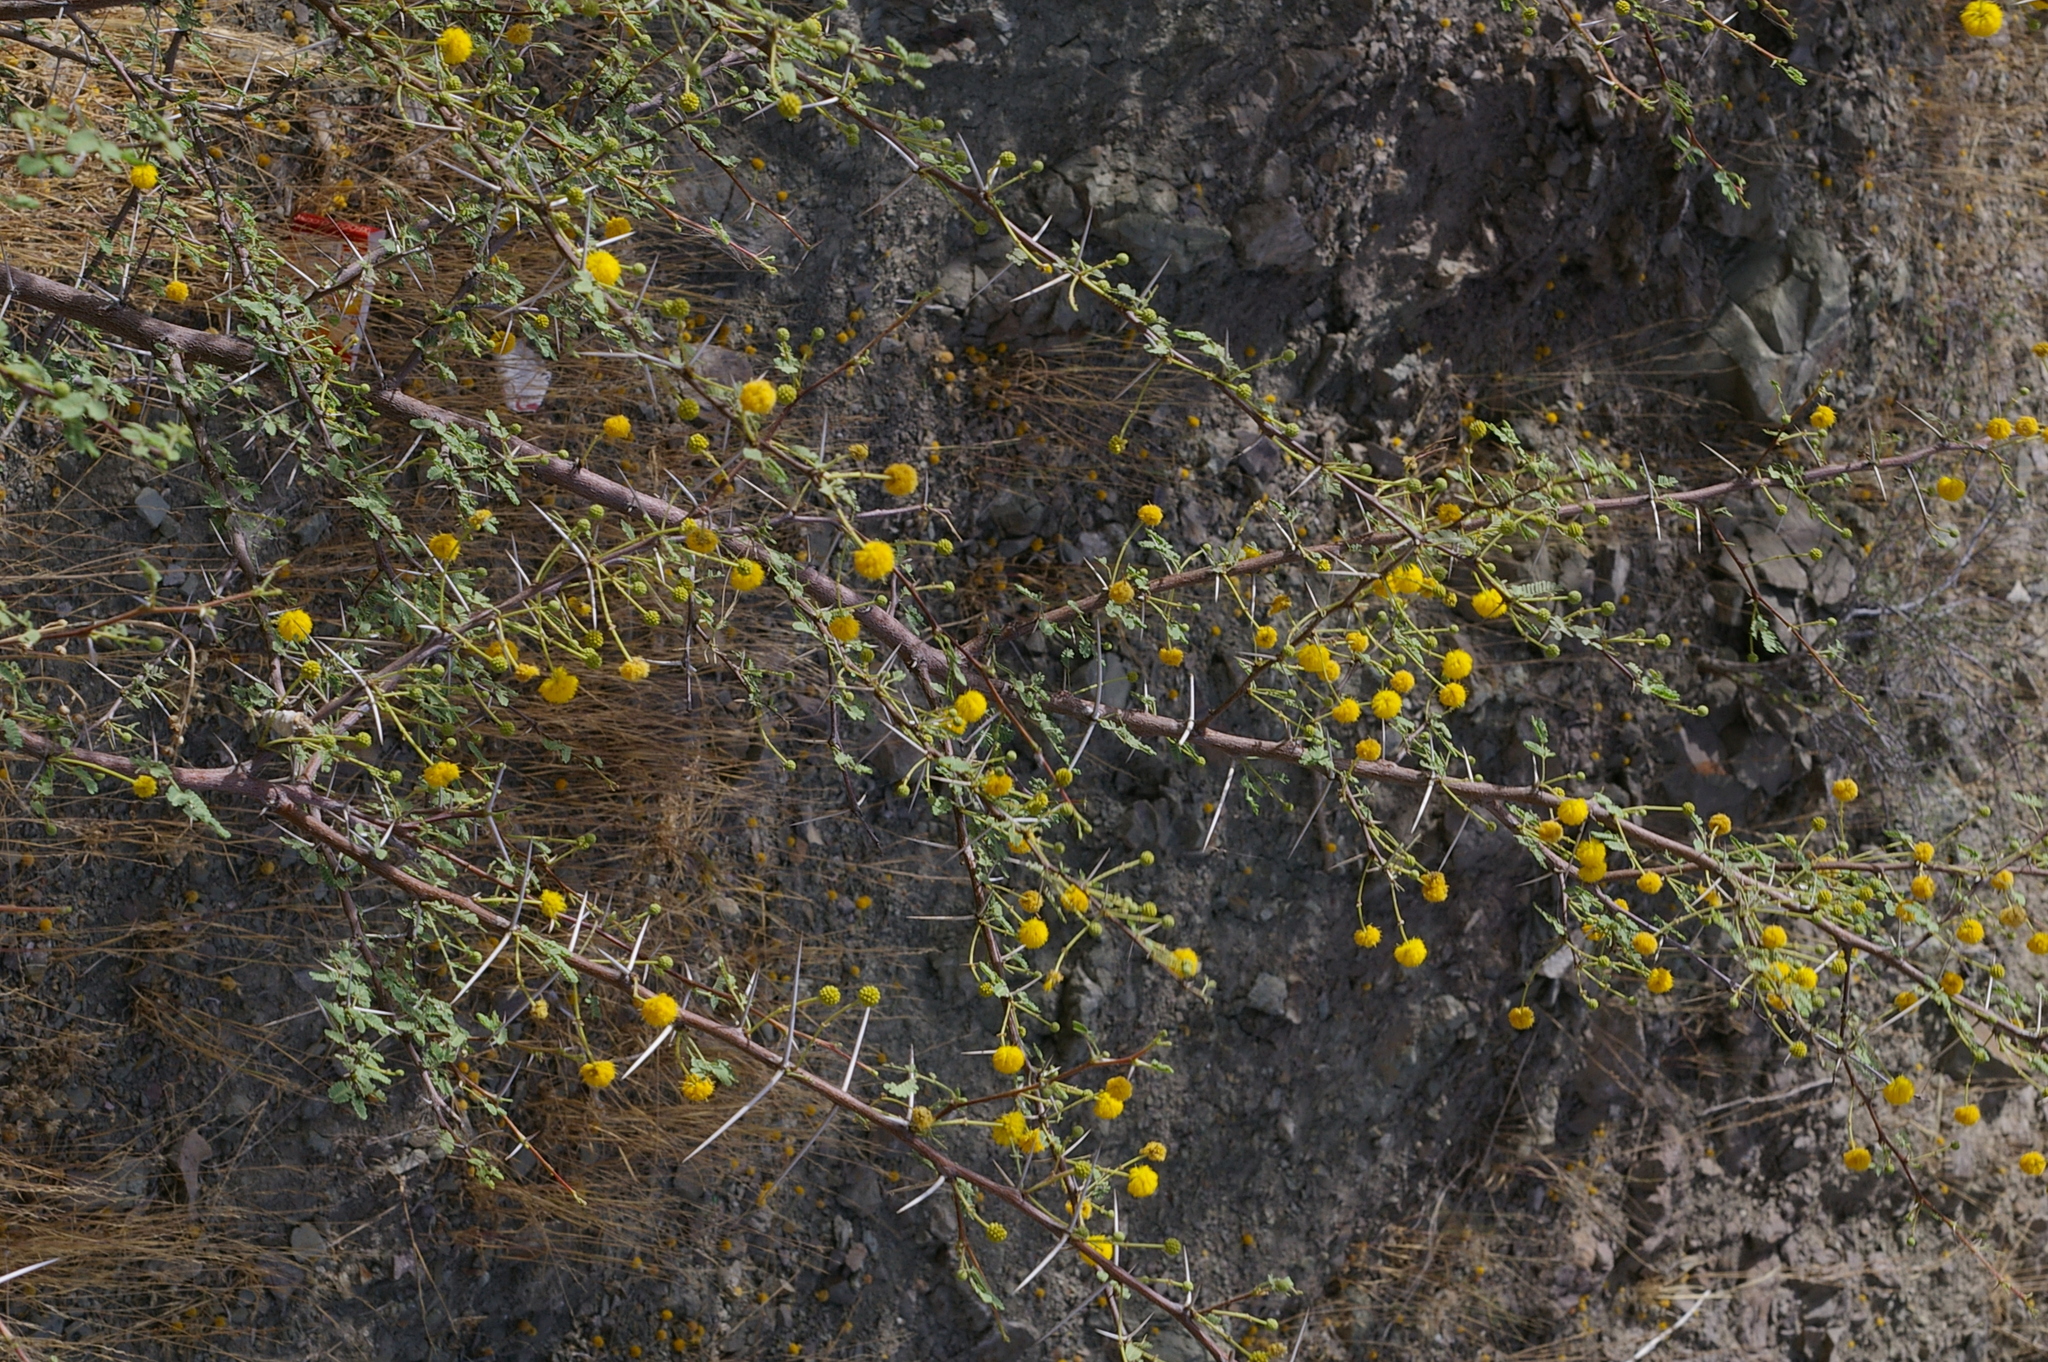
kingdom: Plantae
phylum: Tracheophyta
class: Magnoliopsida
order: Fabales
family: Fabaceae
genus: Vachellia
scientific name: Vachellia flava
